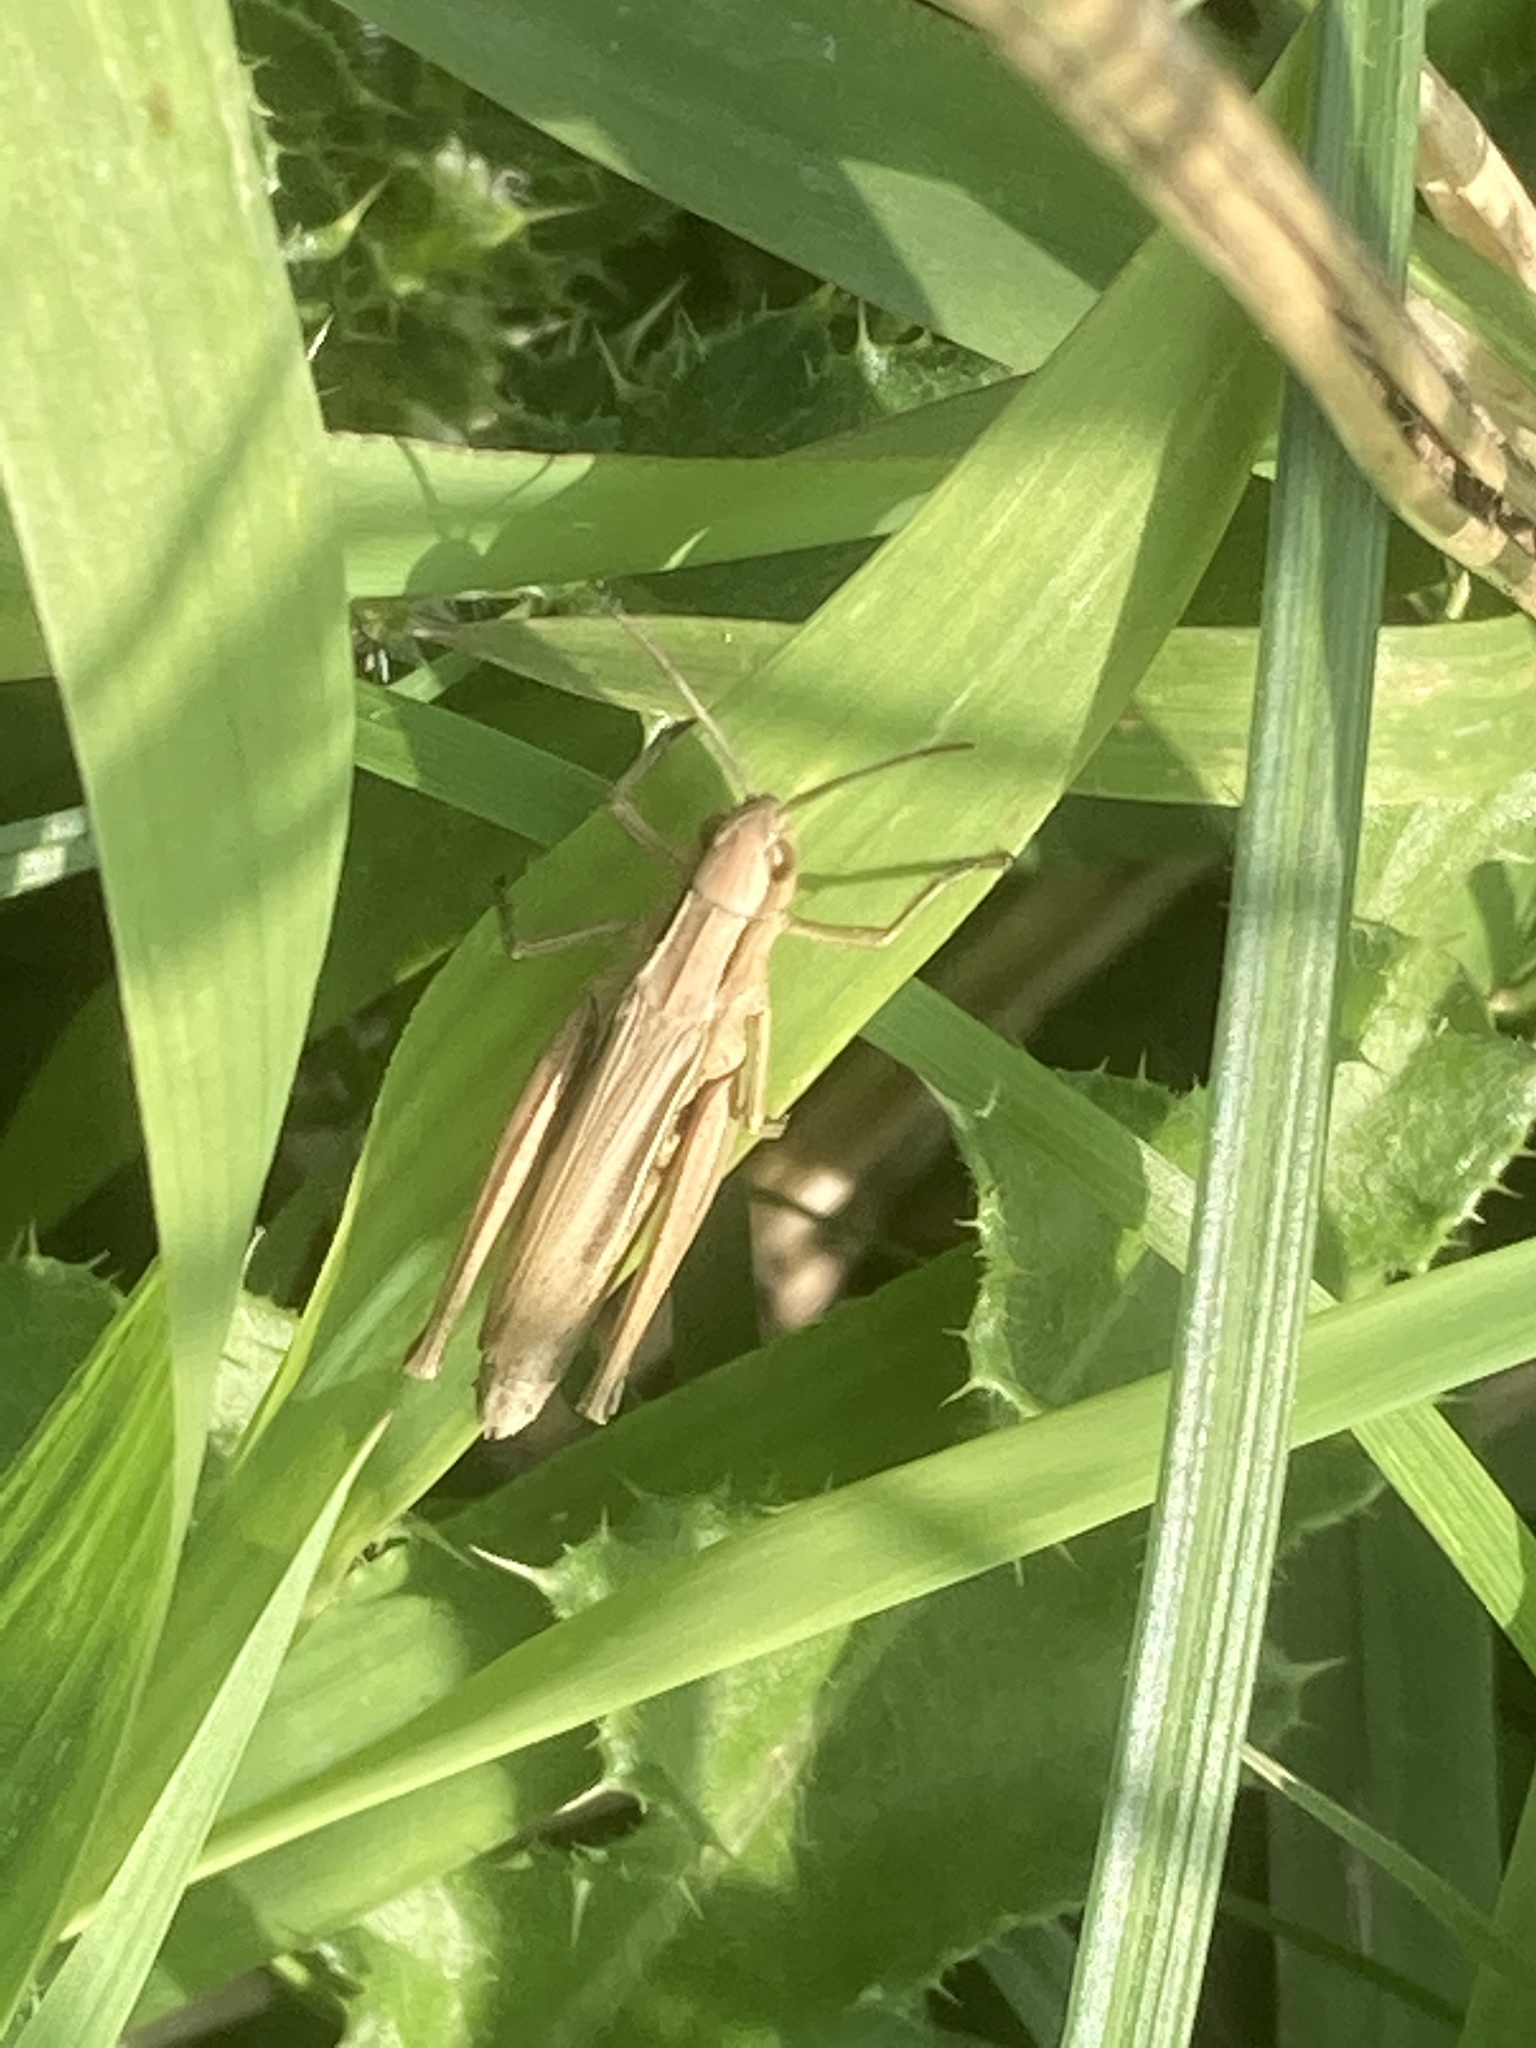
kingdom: Animalia
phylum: Arthropoda
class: Insecta
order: Orthoptera
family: Acrididae
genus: Chorthippus
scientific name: Chorthippus albomarginatus
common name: Lesser marsh grasshopper
